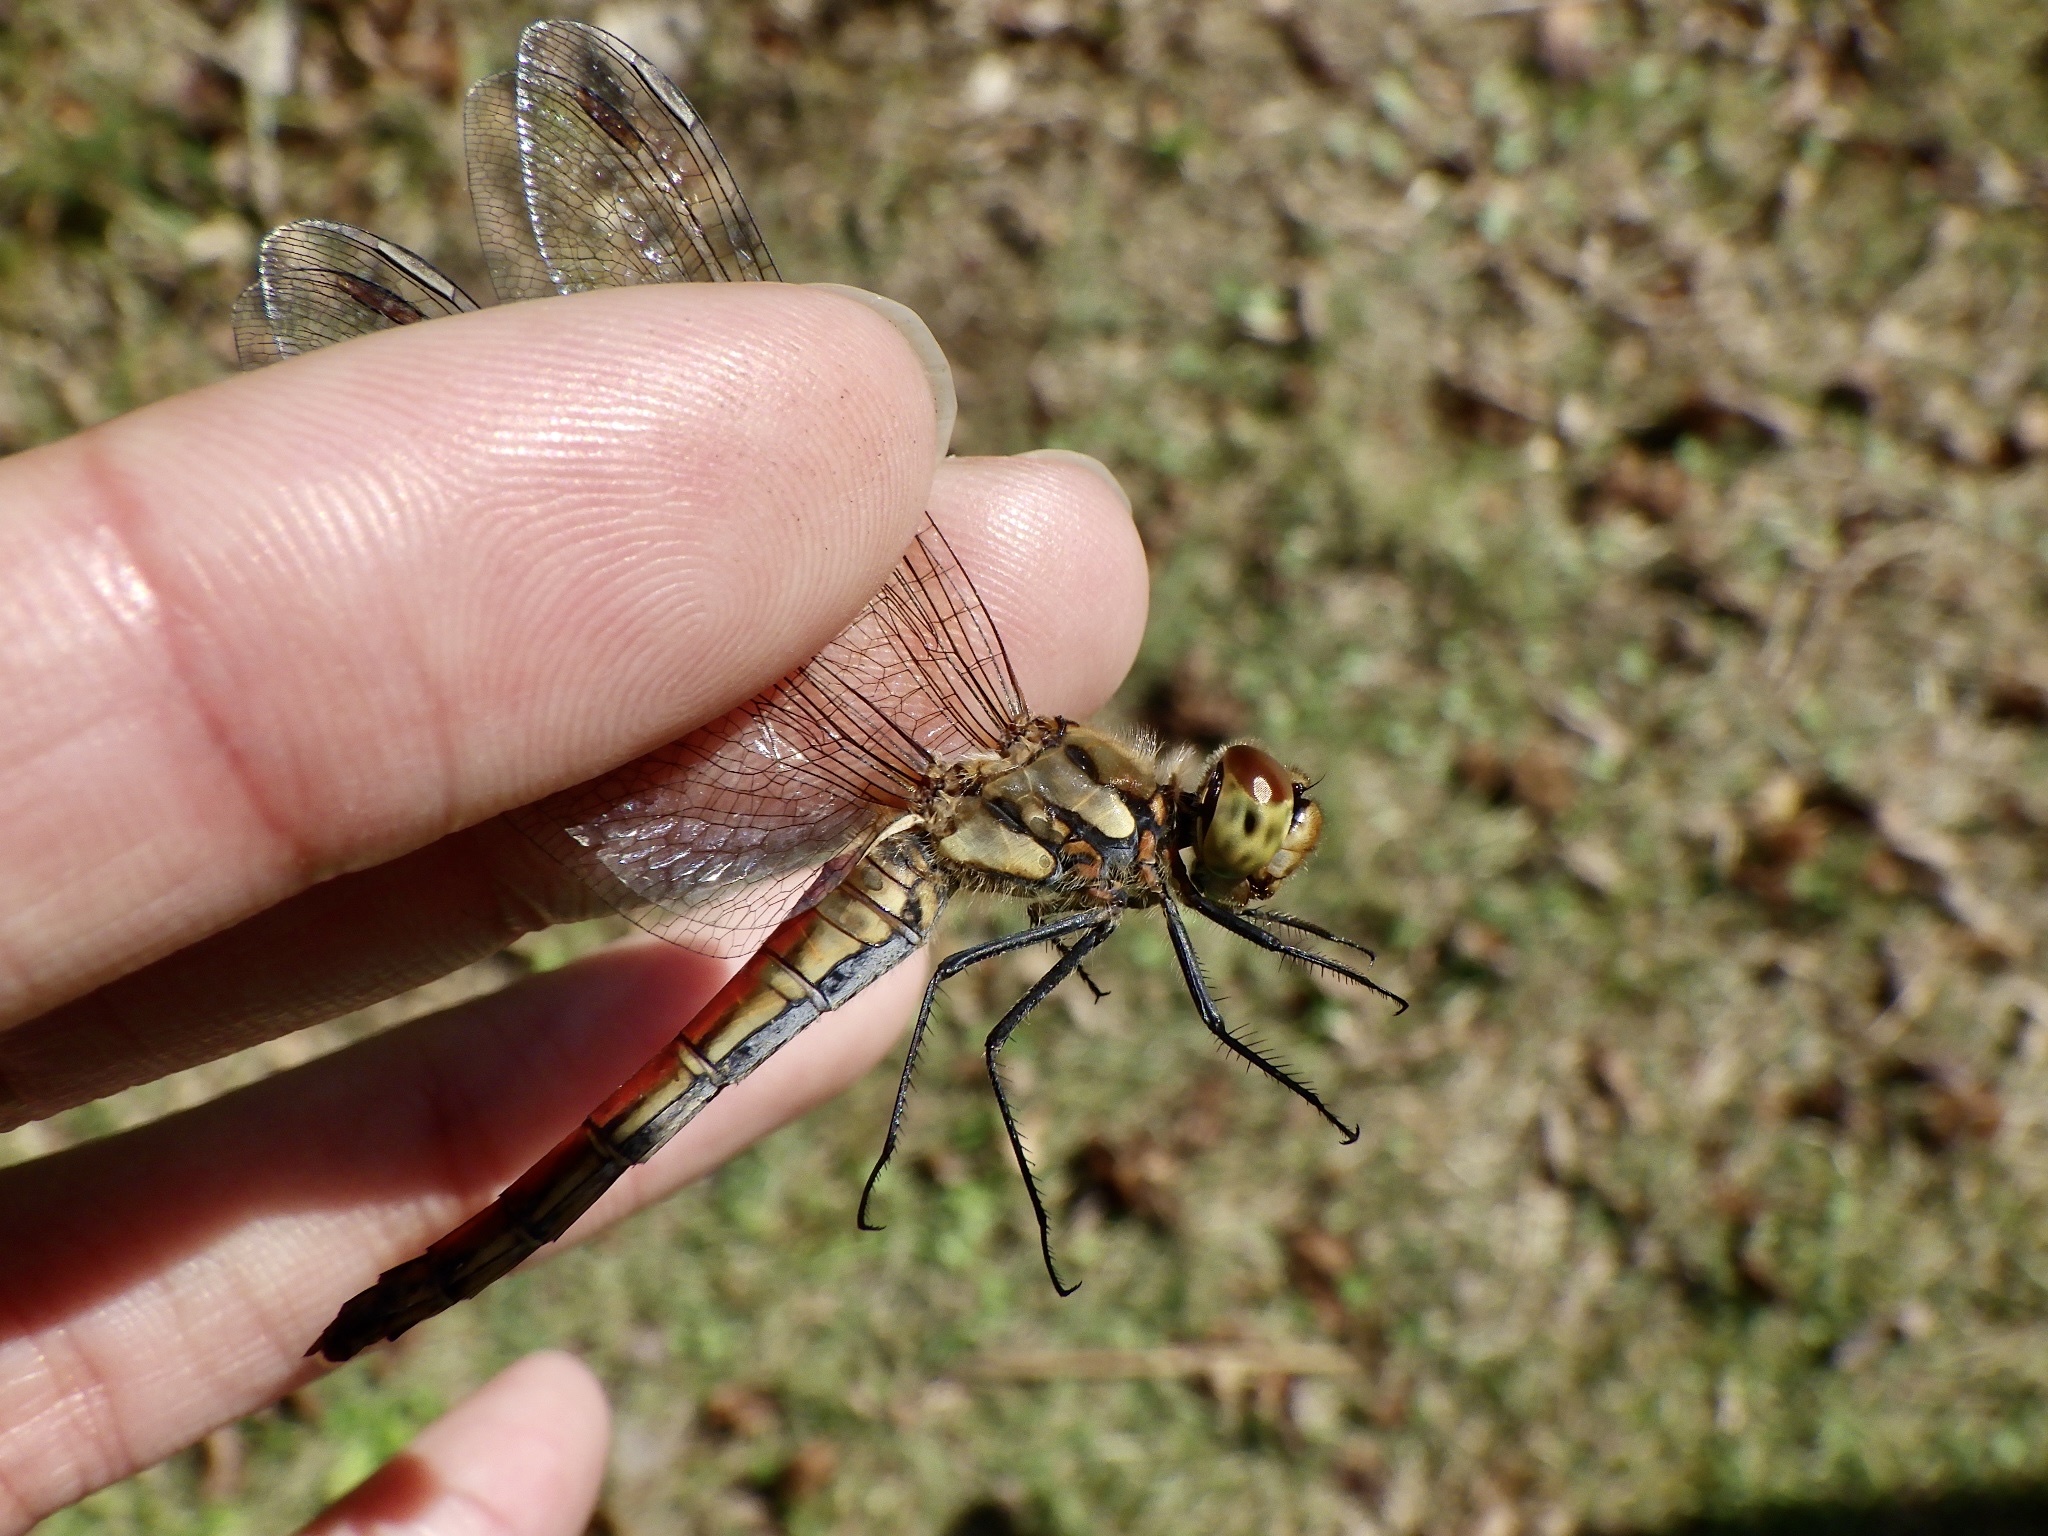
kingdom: Animalia
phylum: Arthropoda
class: Insecta
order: Odonata
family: Libellulidae
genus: Sympetrum
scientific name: Sympetrum frequens
